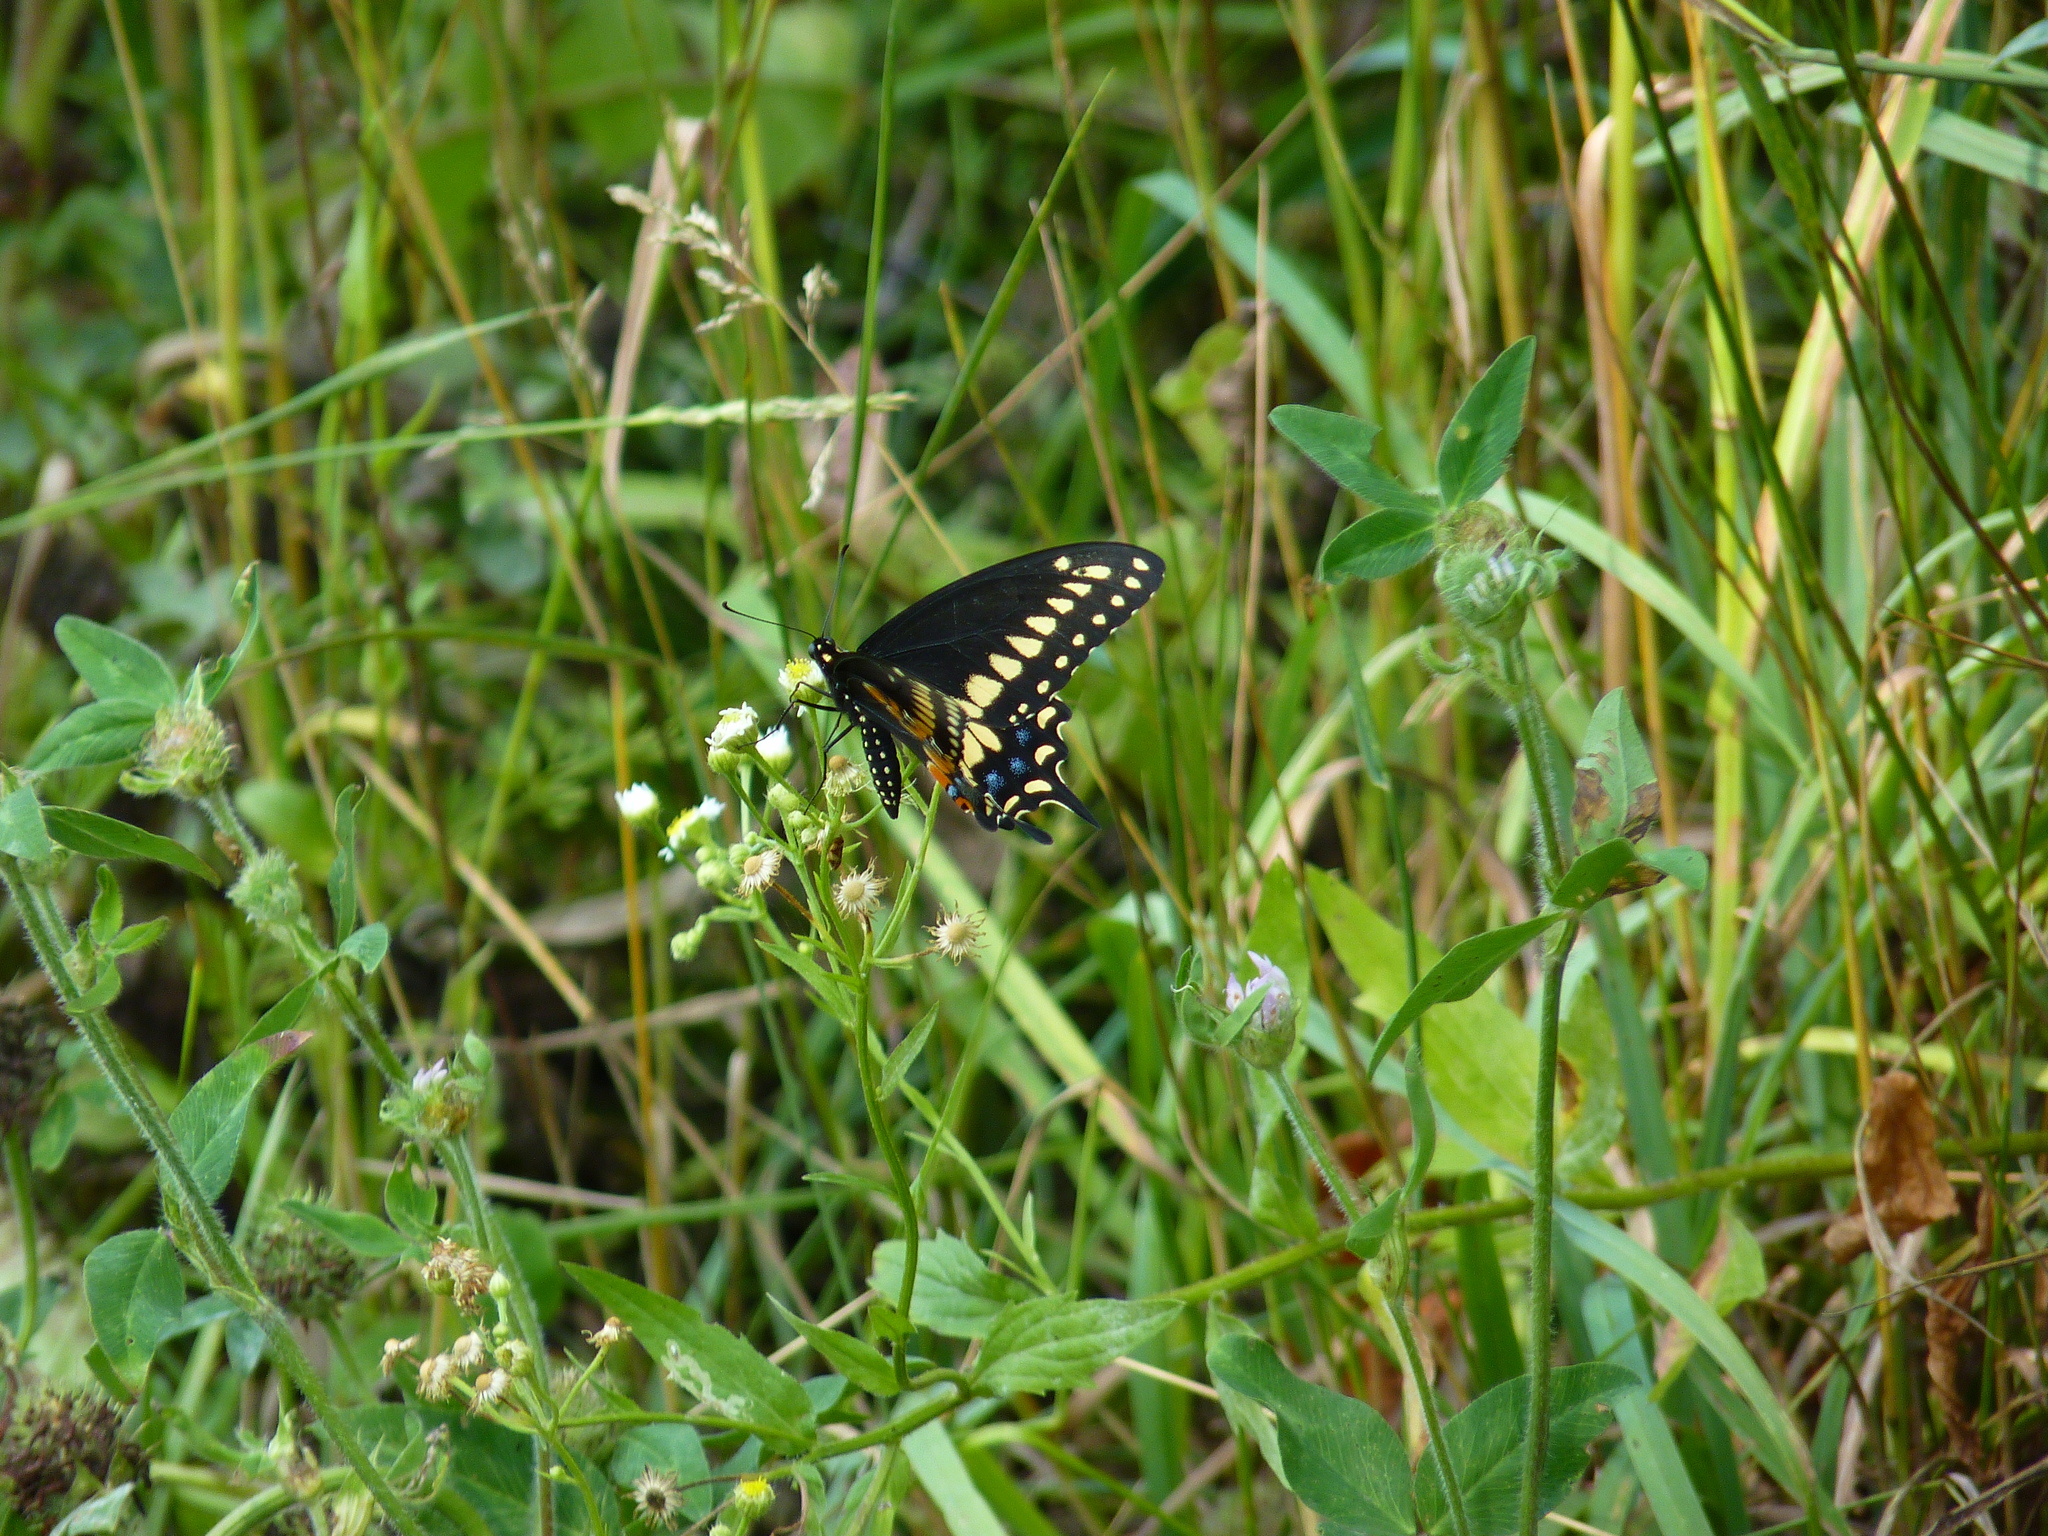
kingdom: Animalia
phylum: Arthropoda
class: Insecta
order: Lepidoptera
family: Papilionidae
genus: Papilio
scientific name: Papilio polyxenes
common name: Black swallowtail
